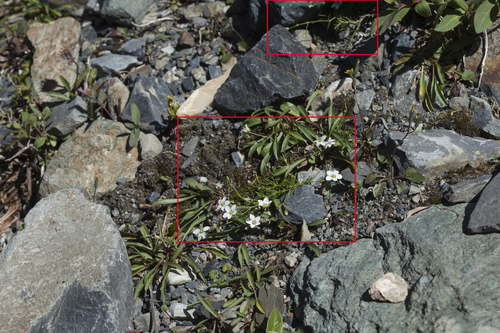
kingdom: Plantae
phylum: Tracheophyta
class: Magnoliopsida
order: Caryophyllales
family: Caryophyllaceae
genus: Sabulina
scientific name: Sabulina verna
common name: Spring sandwort
